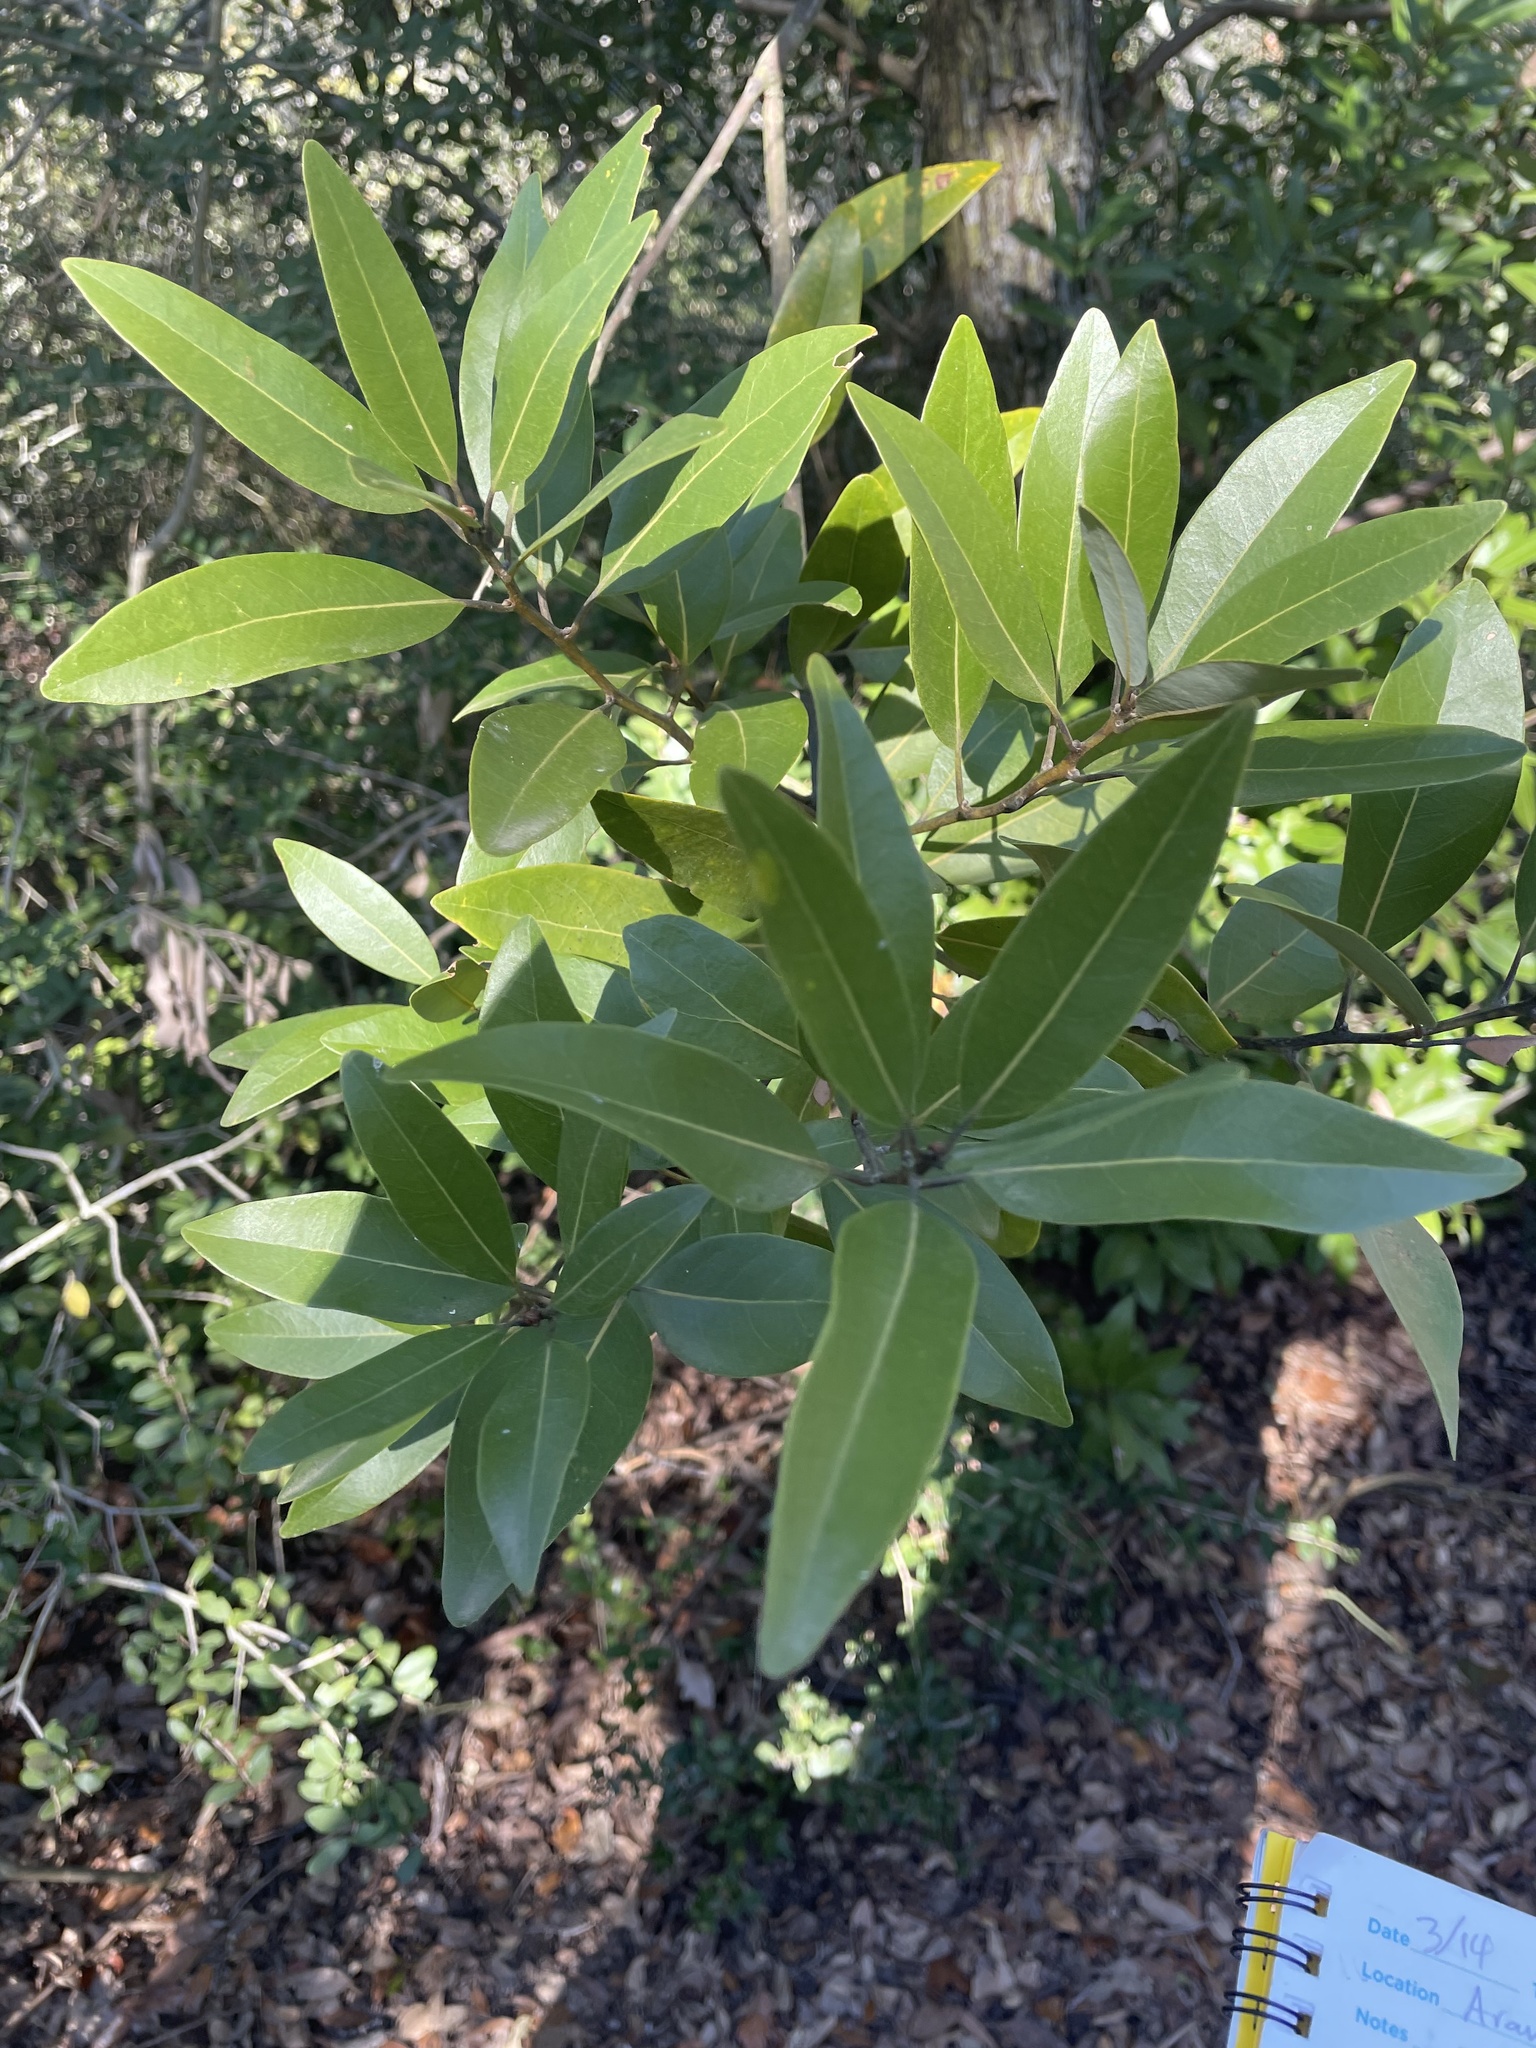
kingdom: Plantae
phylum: Tracheophyta
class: Magnoliopsida
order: Laurales
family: Lauraceae
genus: Persea
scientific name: Persea borbonia
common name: Redbay
